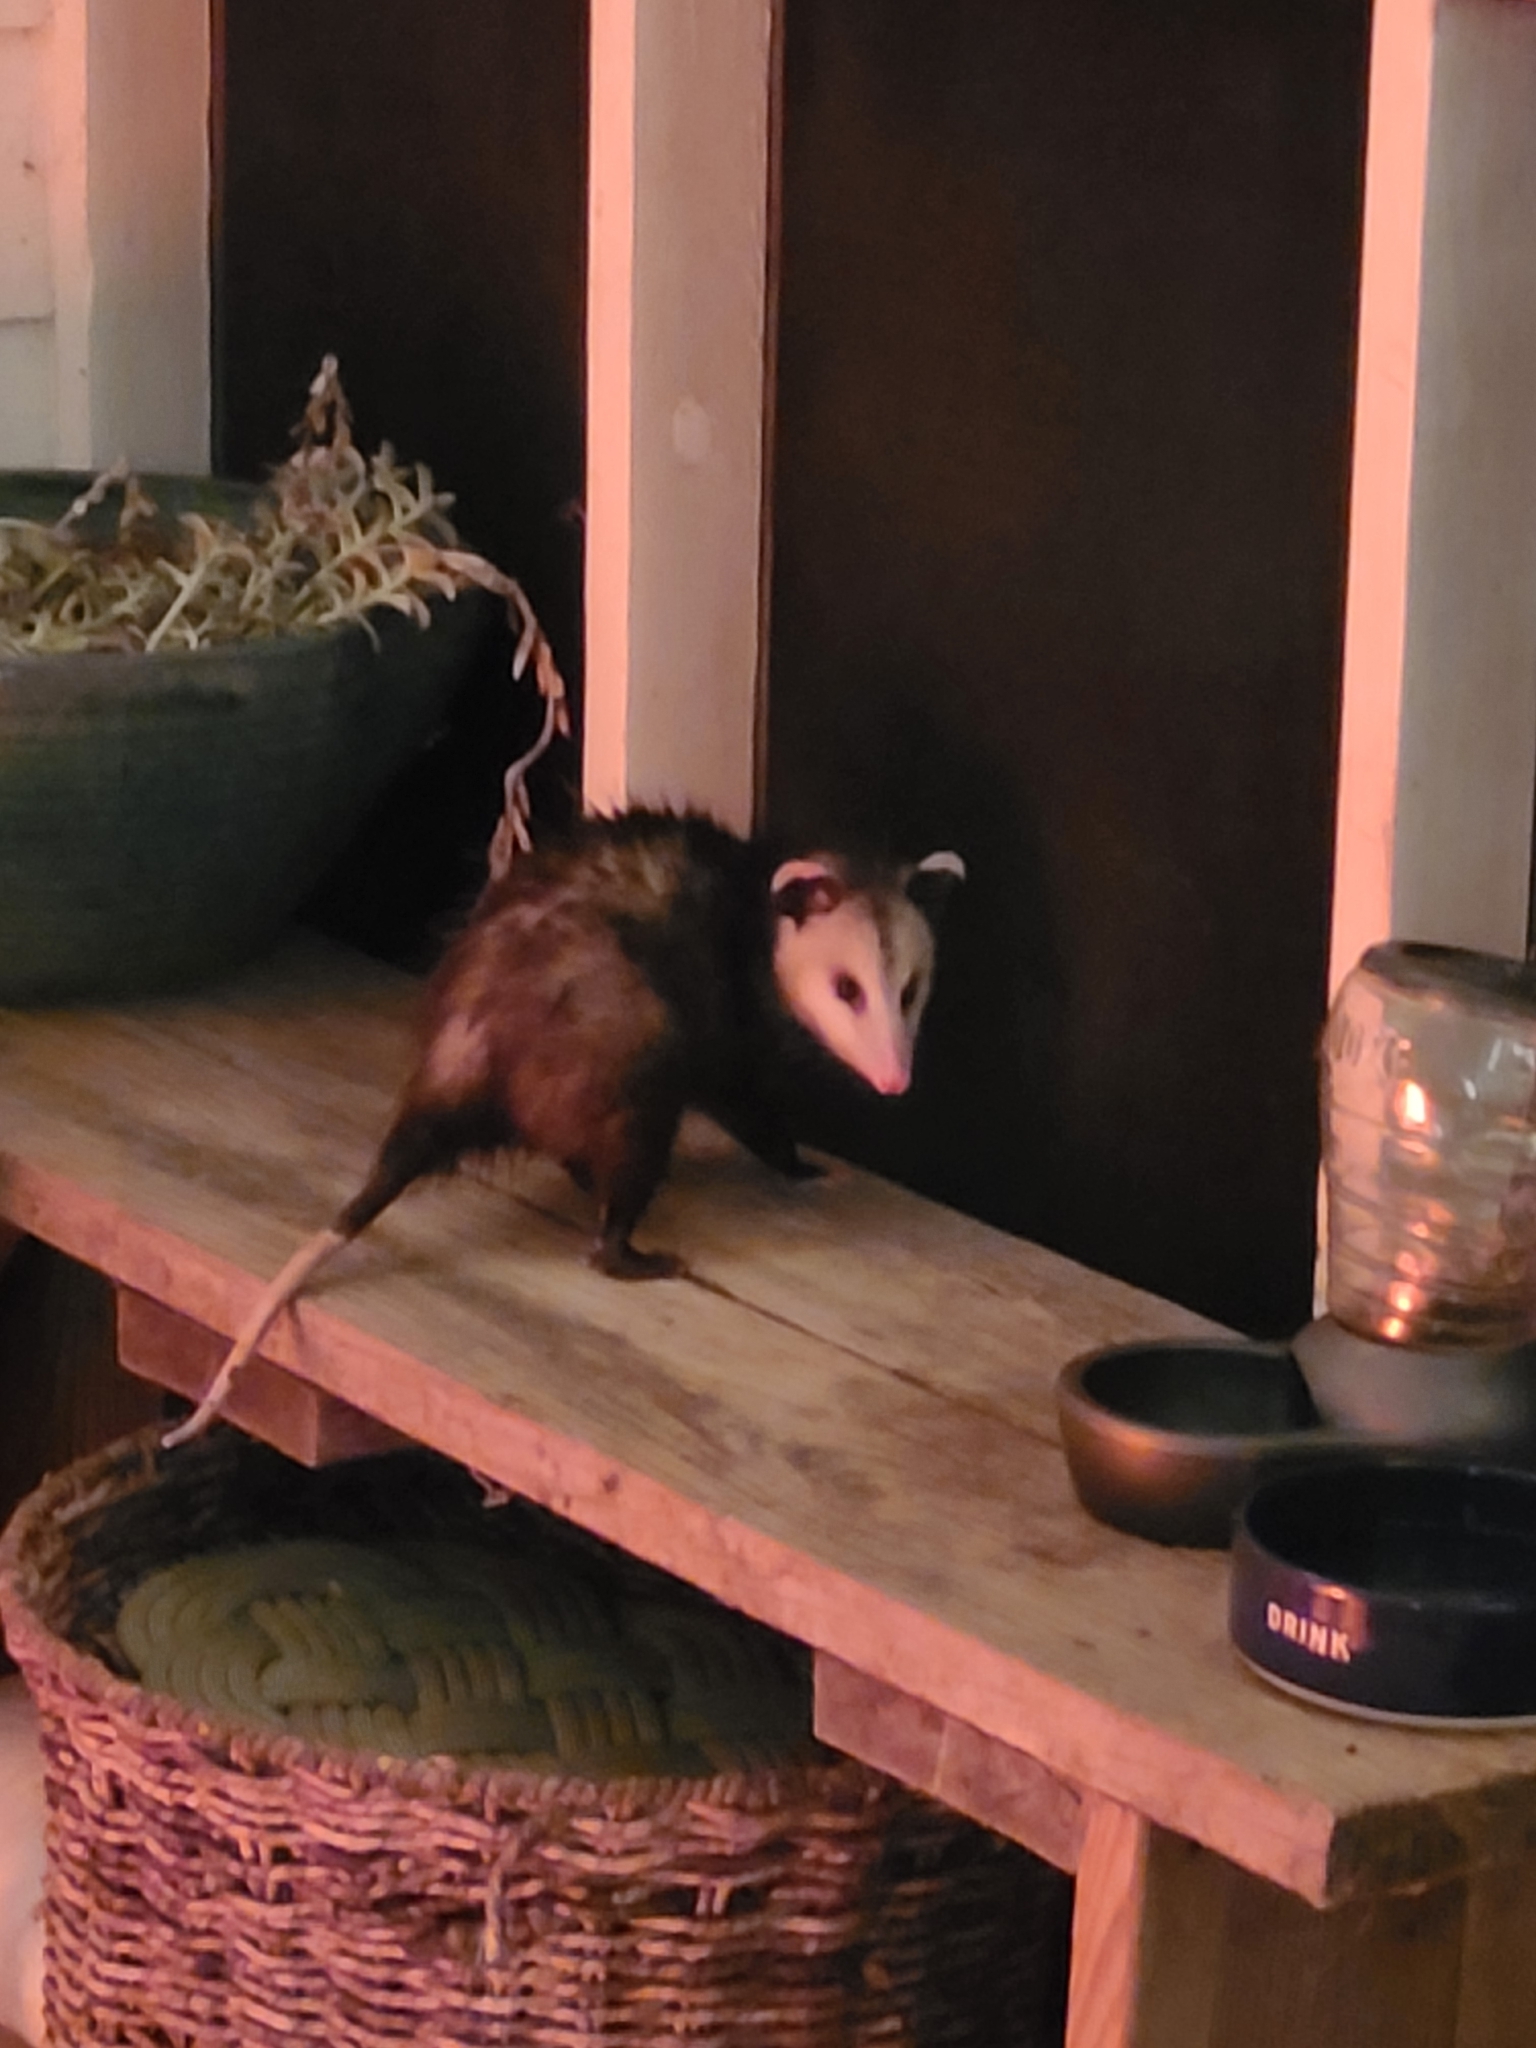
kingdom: Animalia
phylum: Chordata
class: Mammalia
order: Didelphimorphia
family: Didelphidae
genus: Didelphis
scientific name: Didelphis virginiana
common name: Virginia opossum
